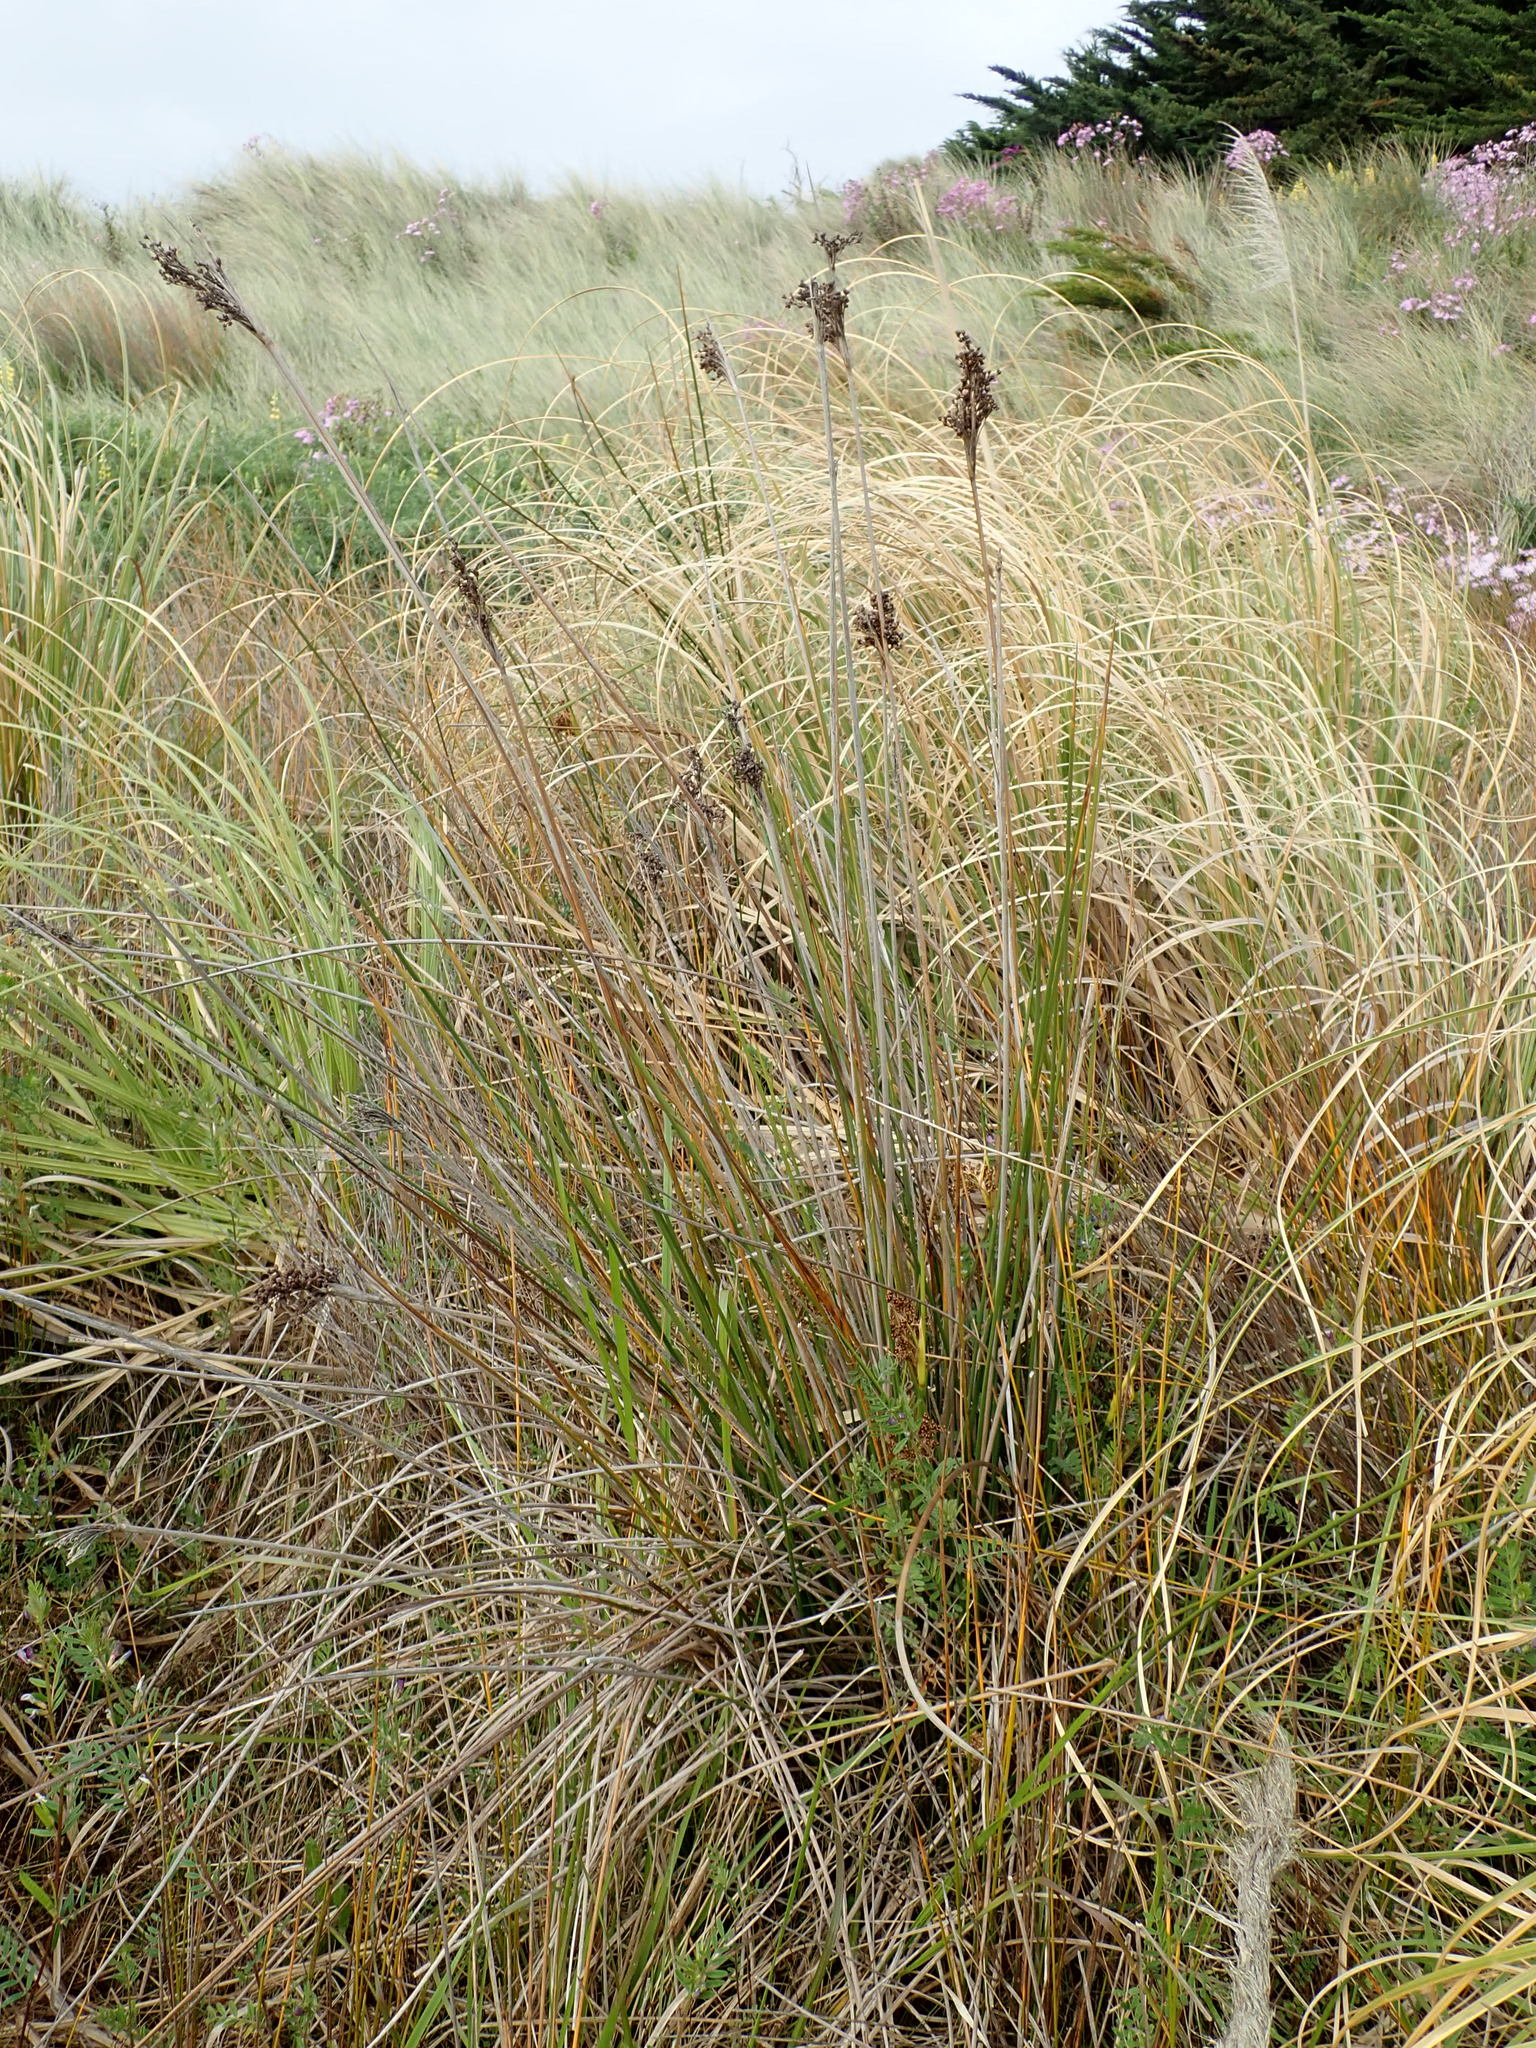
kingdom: Plantae
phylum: Tracheophyta
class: Liliopsida
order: Poales
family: Juncaceae
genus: Juncus
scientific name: Juncus acutus
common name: Sharp rush
